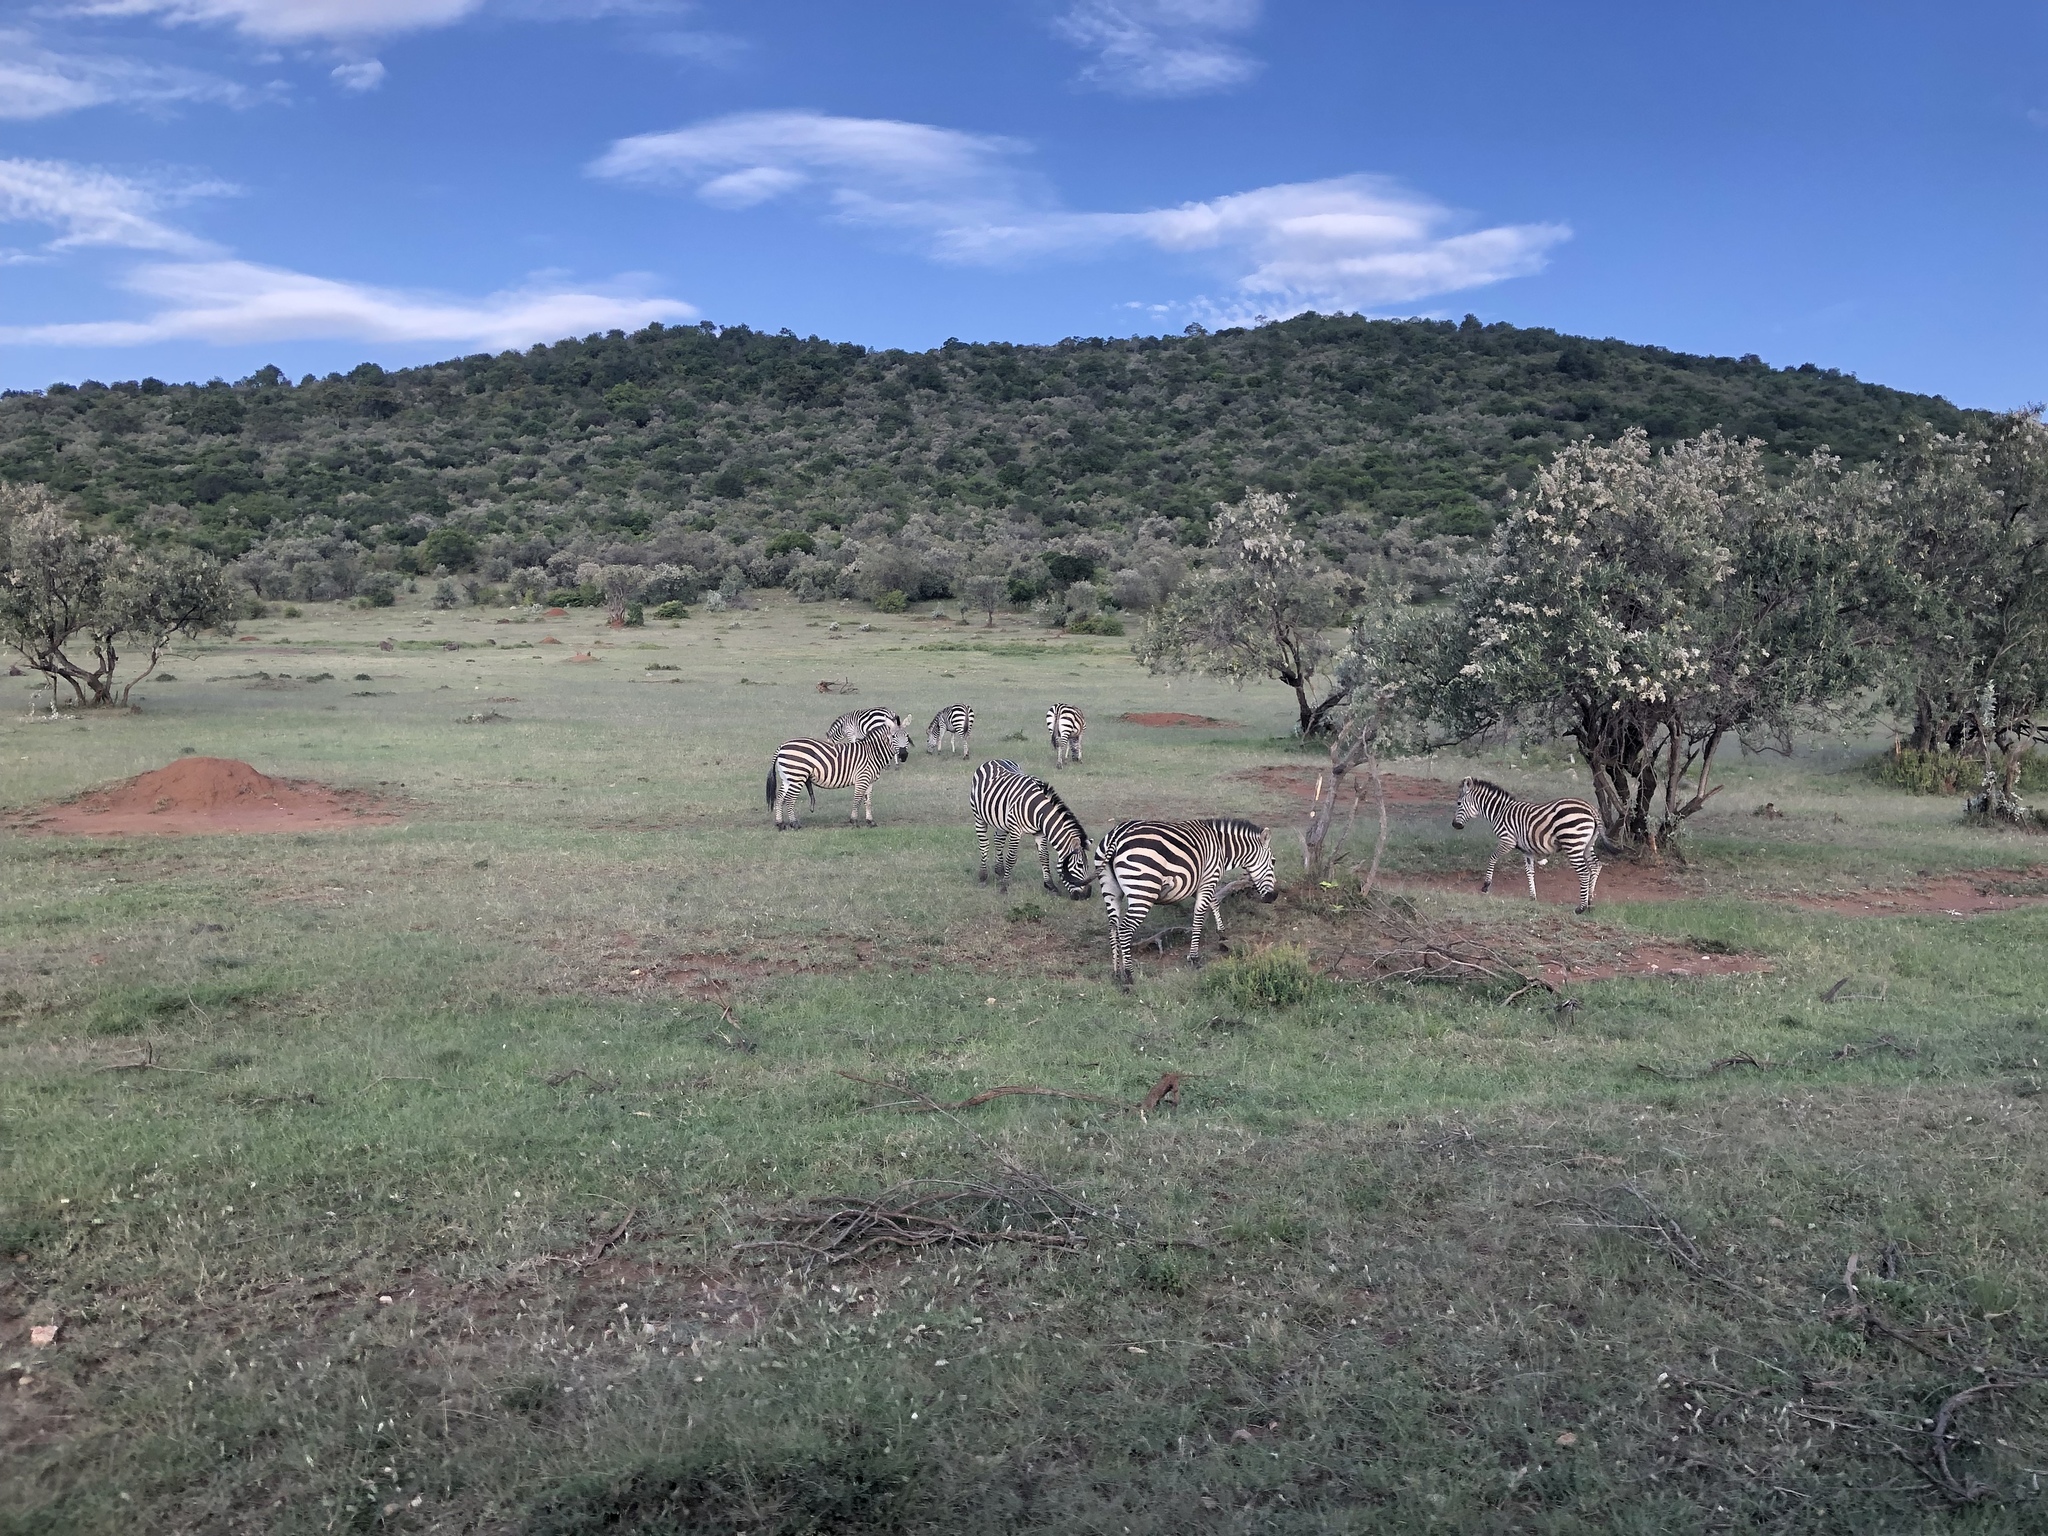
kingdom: Animalia
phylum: Chordata
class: Mammalia
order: Perissodactyla
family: Equidae
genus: Equus
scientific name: Equus quagga
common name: Plains zebra
